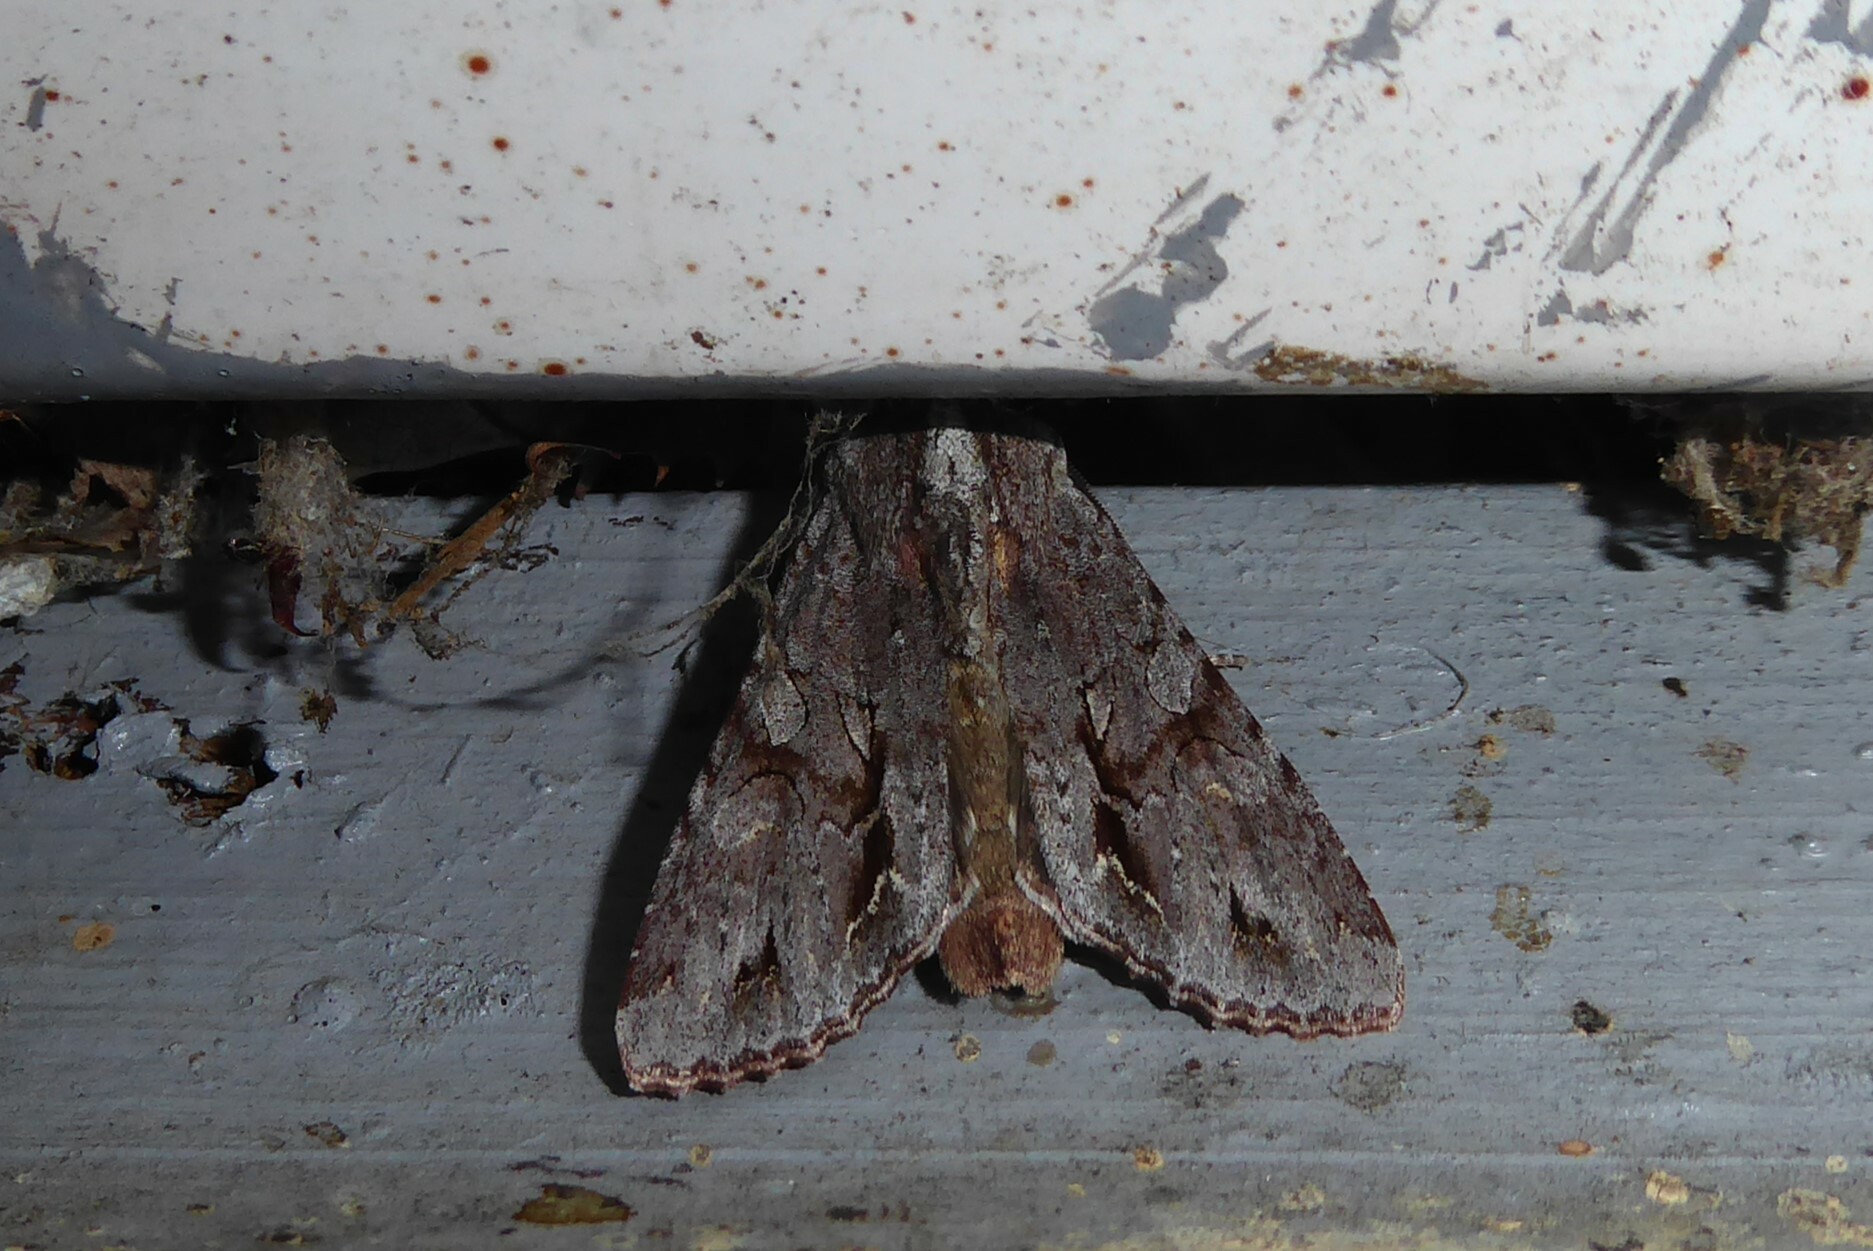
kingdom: Animalia
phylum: Arthropoda
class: Insecta
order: Lepidoptera
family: Noctuidae
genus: Ichneutica
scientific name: Ichneutica
